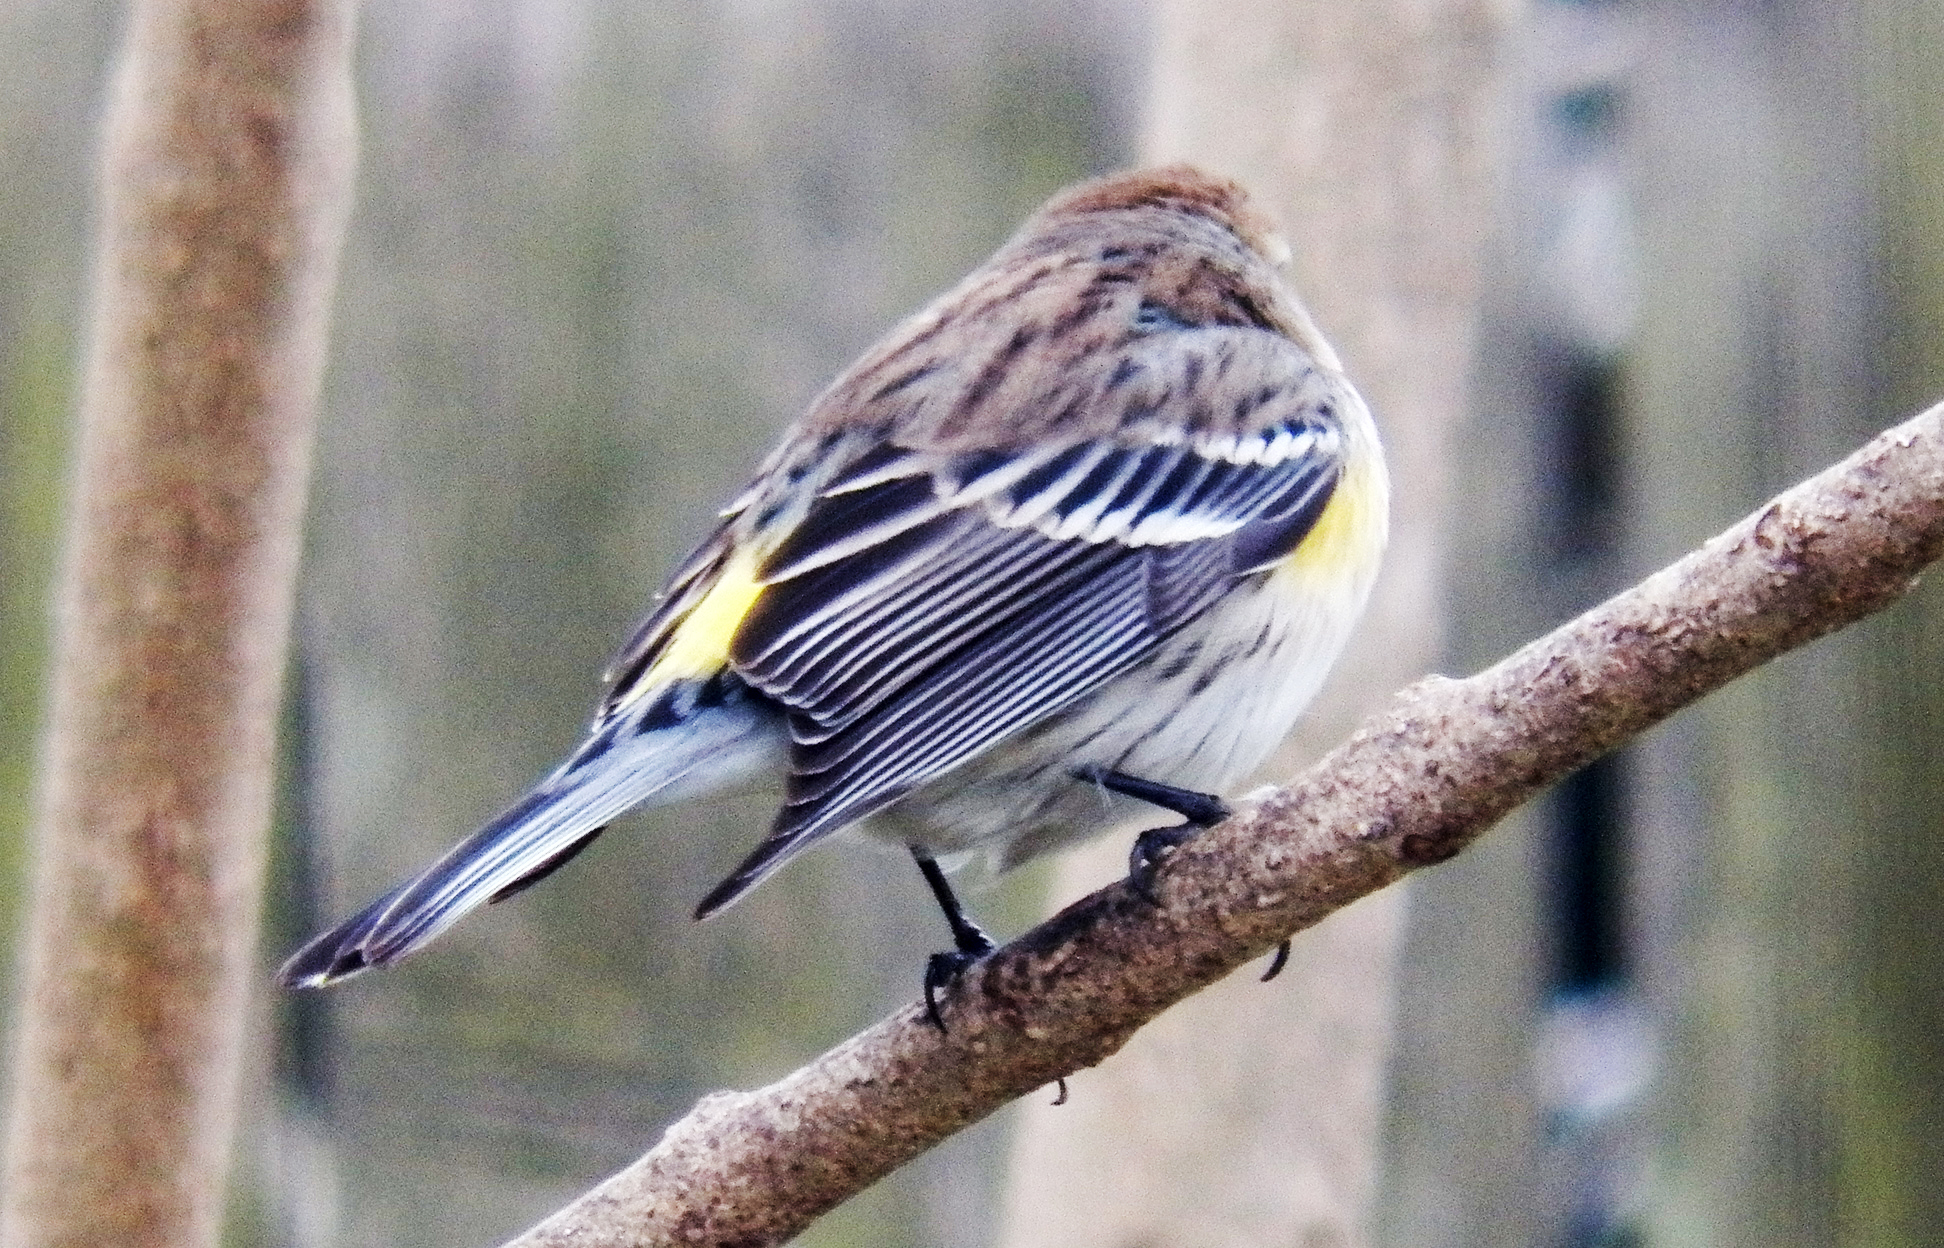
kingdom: Animalia
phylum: Chordata
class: Aves
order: Passeriformes
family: Parulidae
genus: Setophaga
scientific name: Setophaga coronata
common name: Myrtle warbler
